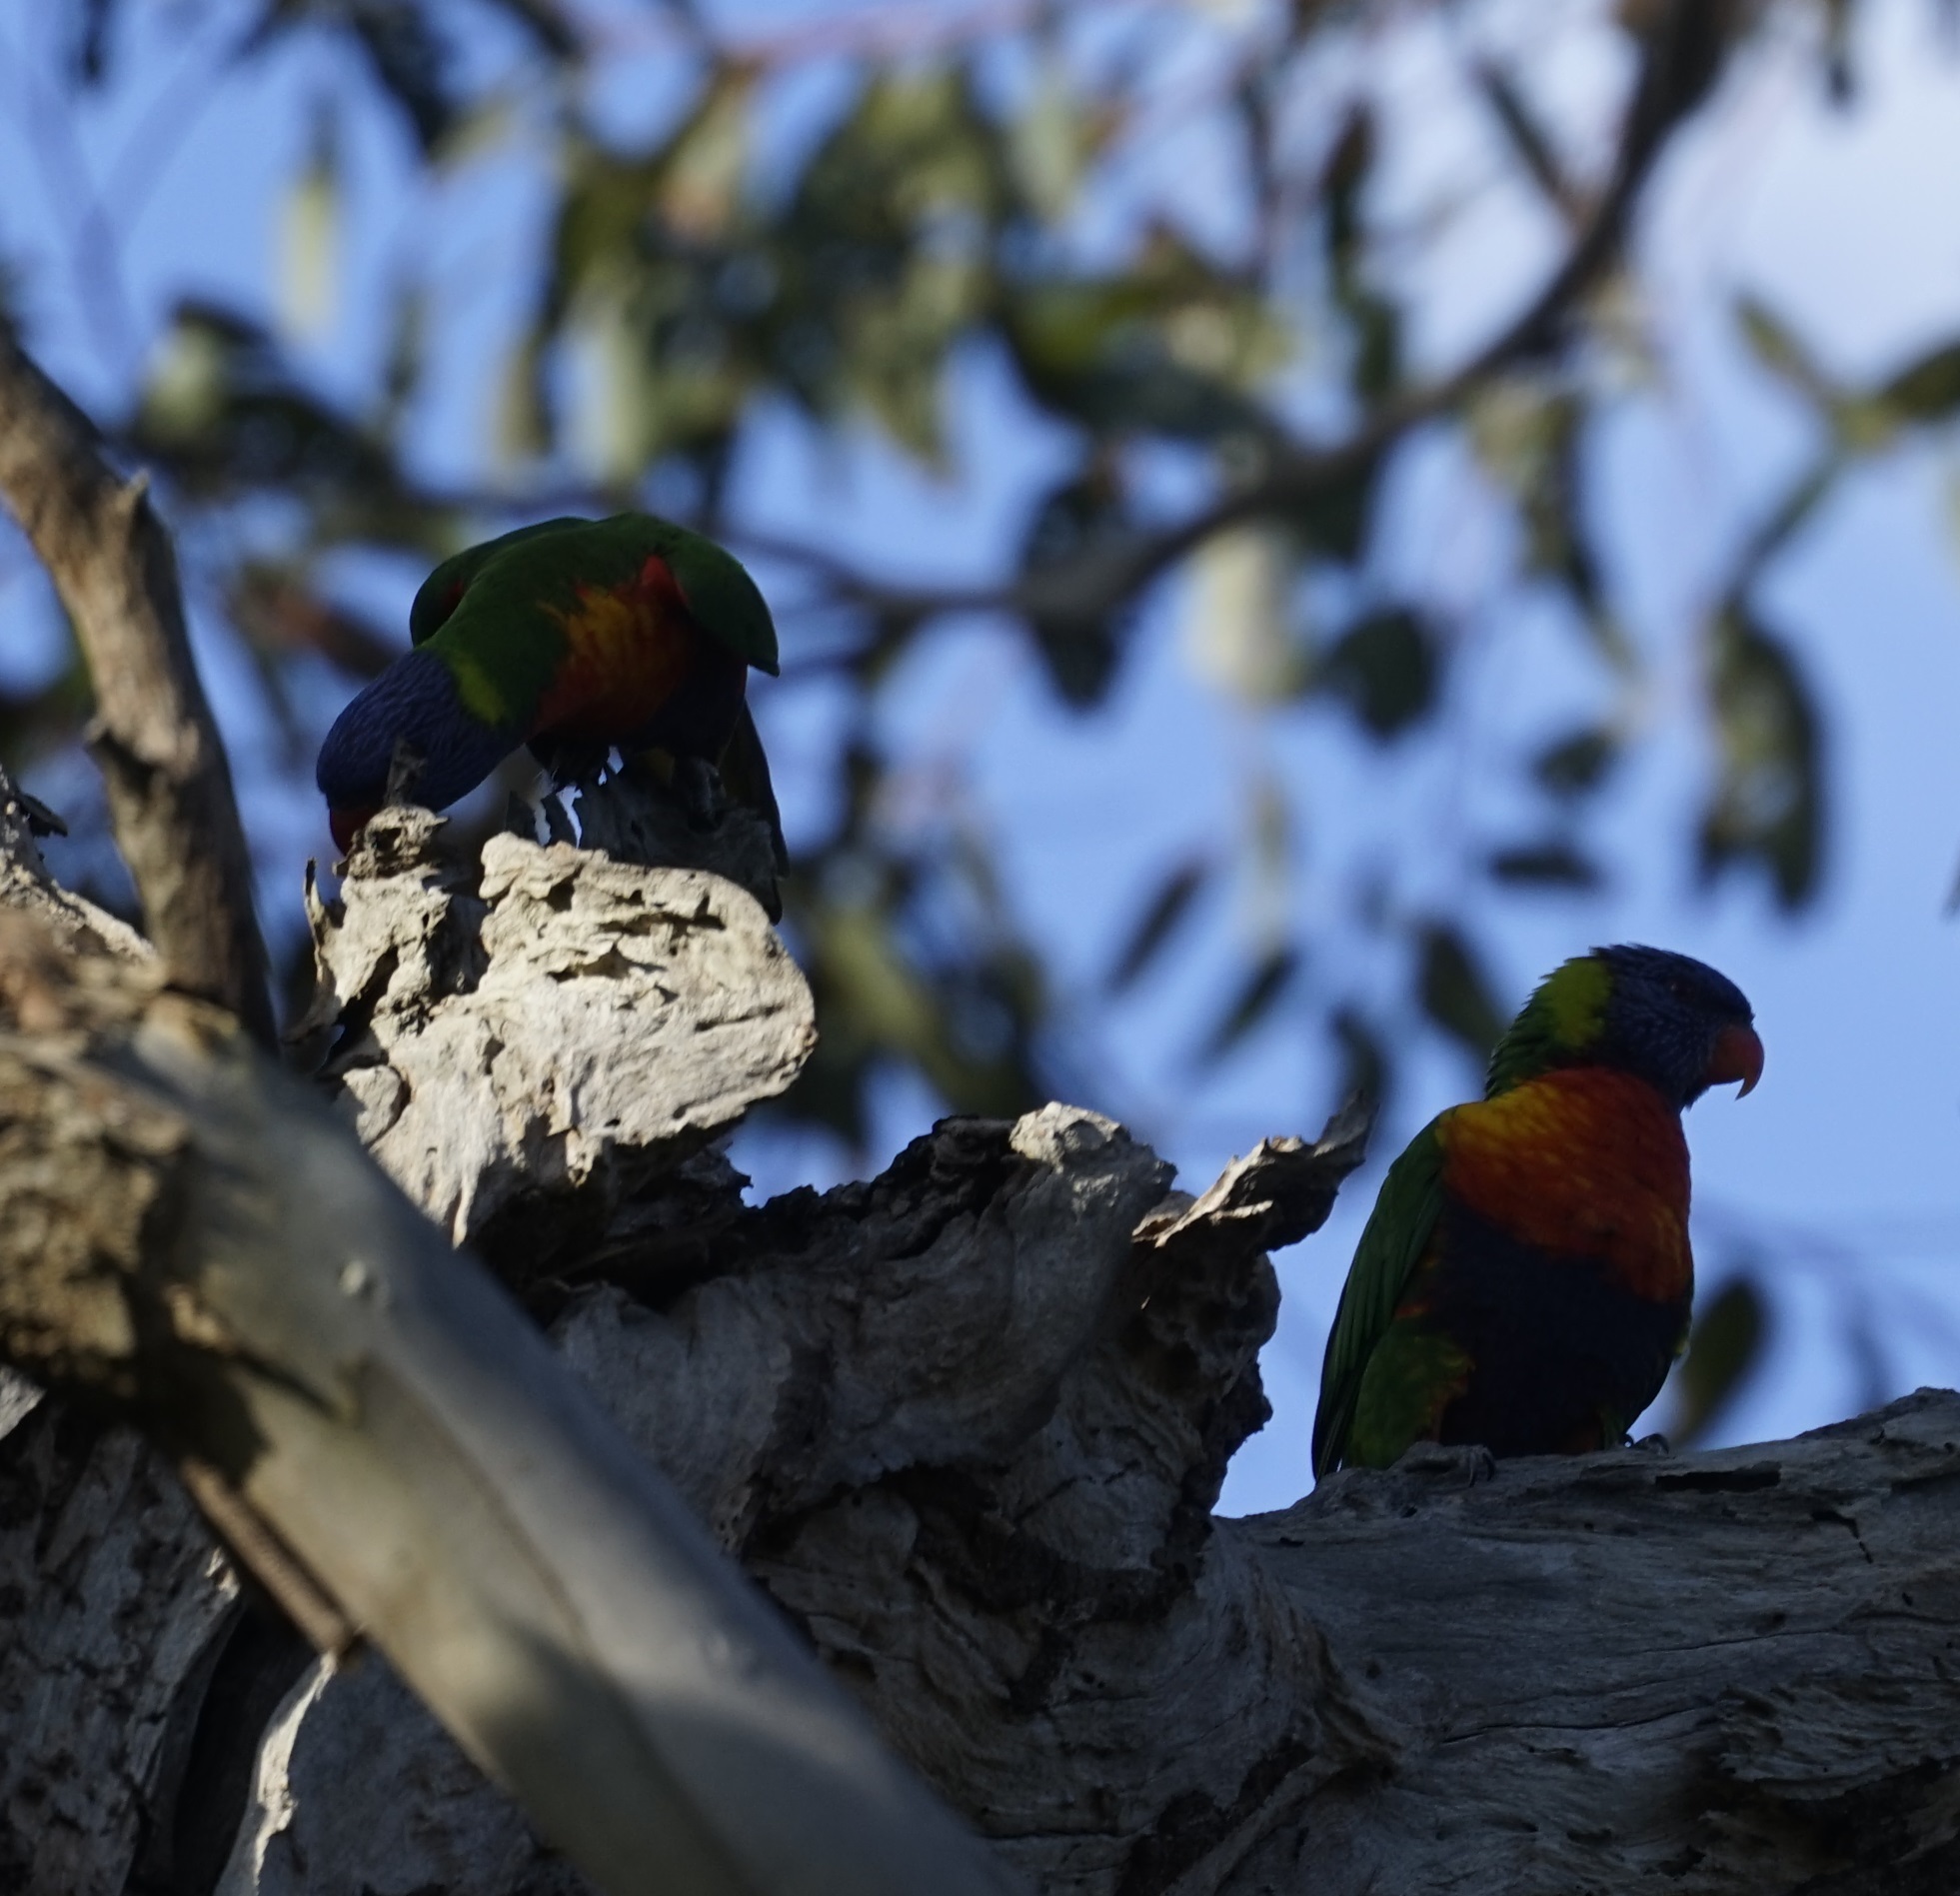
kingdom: Animalia
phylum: Chordata
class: Aves
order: Psittaciformes
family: Psittacidae
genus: Trichoglossus
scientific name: Trichoglossus haematodus
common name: Coconut lorikeet
